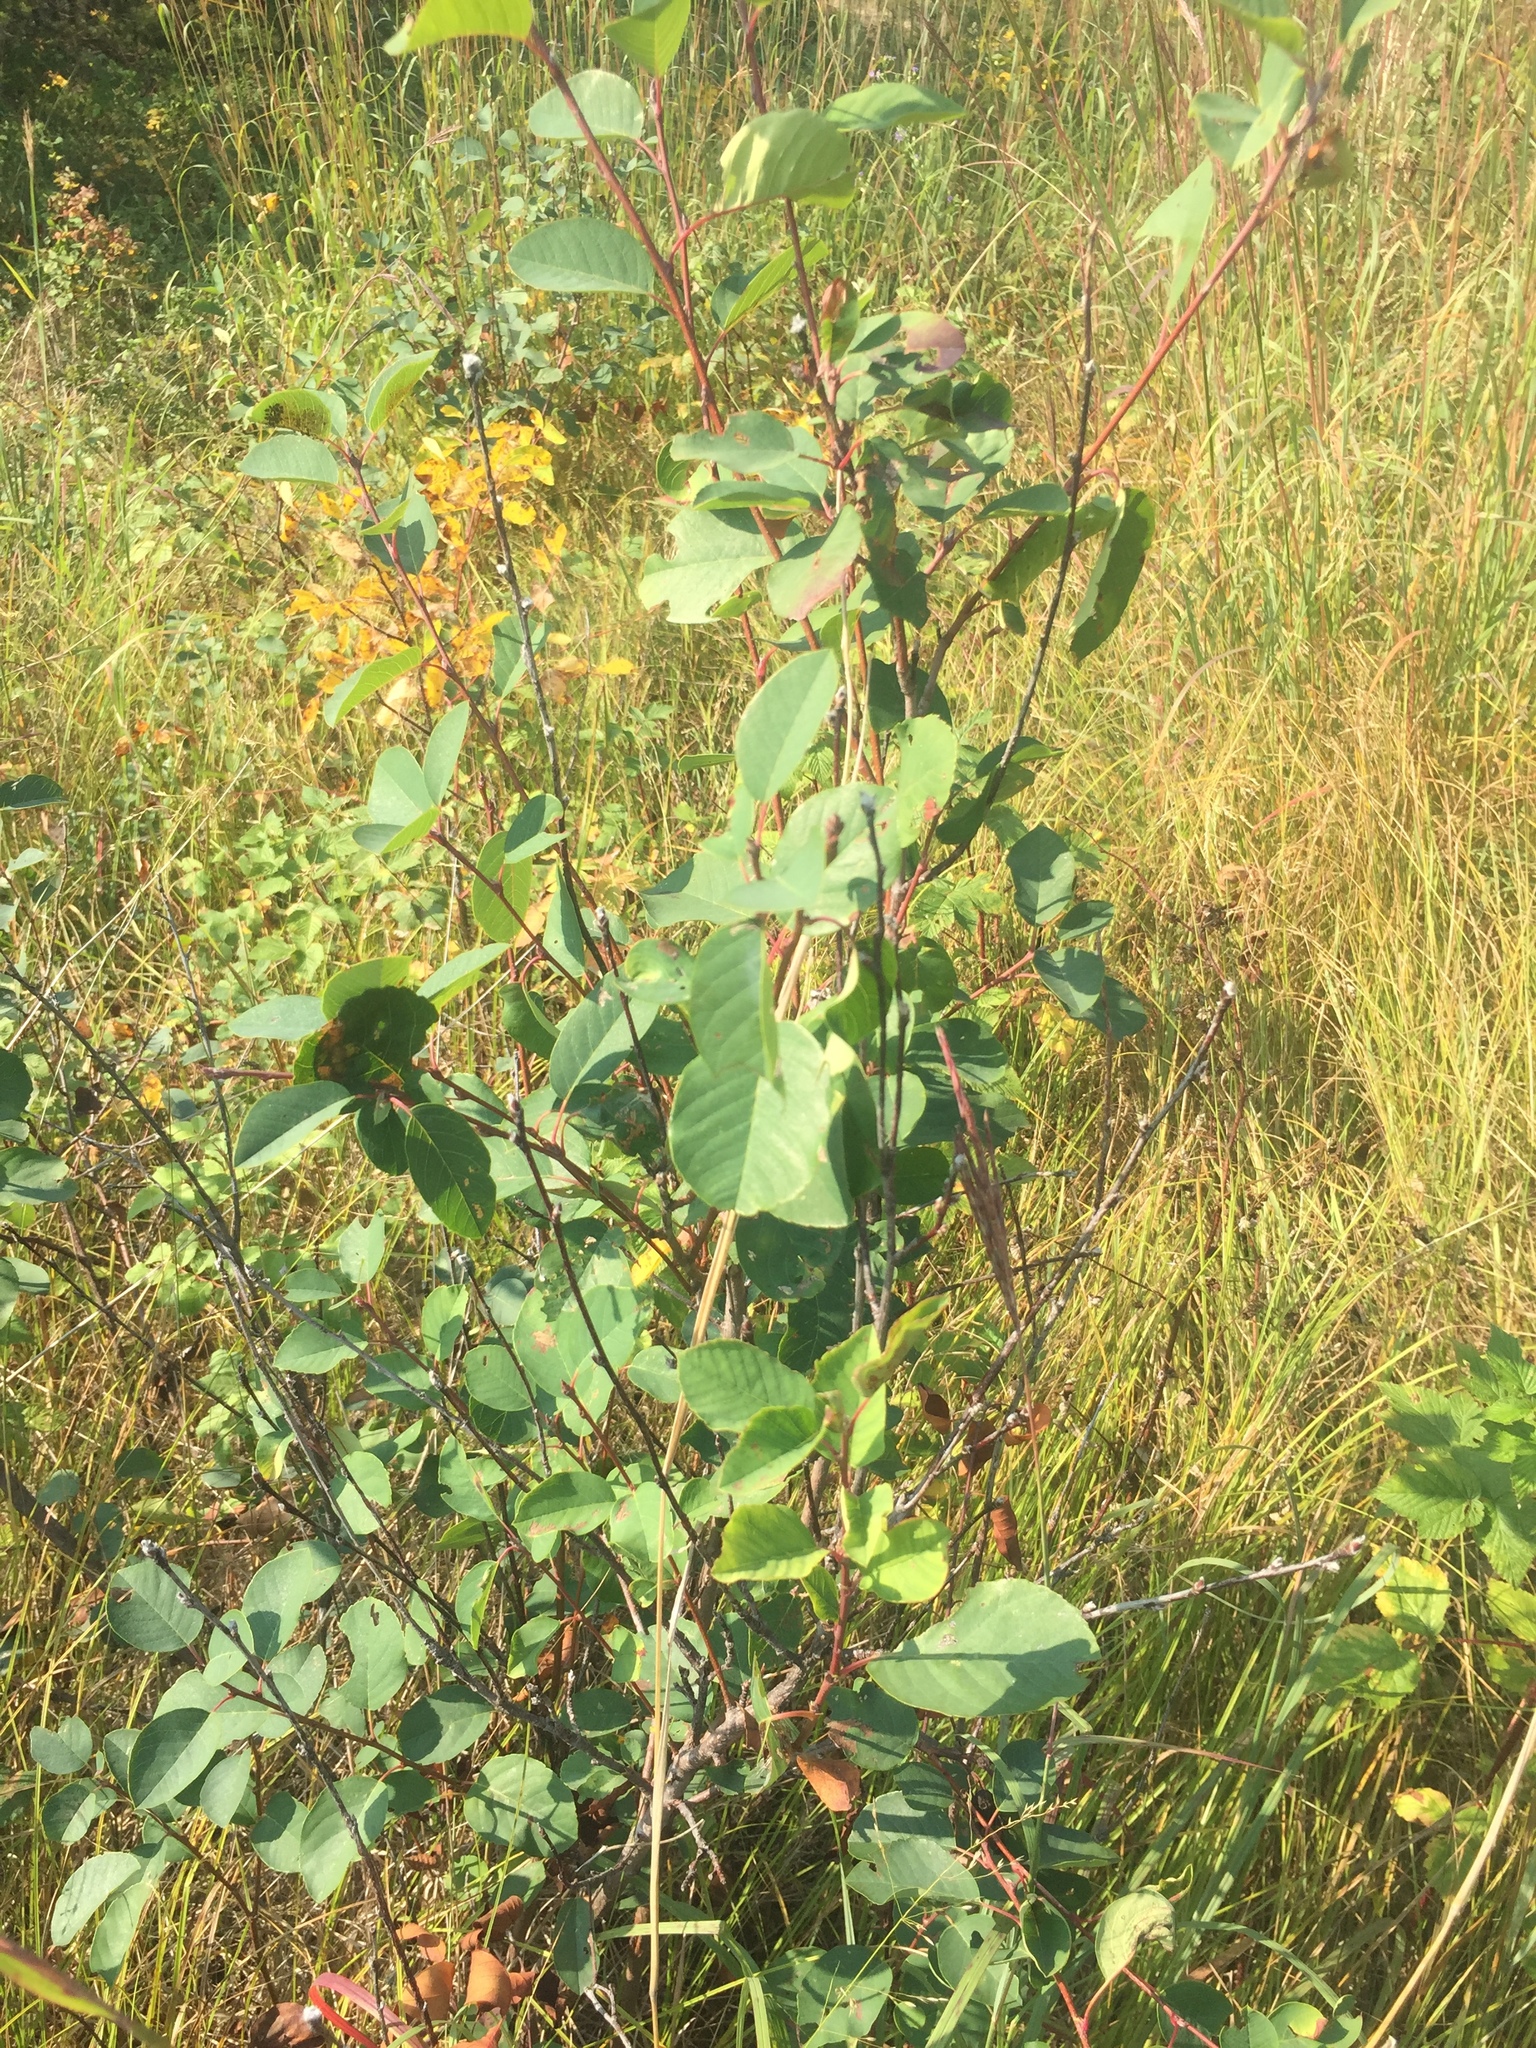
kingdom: Plantae
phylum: Tracheophyta
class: Magnoliopsida
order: Rosales
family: Rosaceae
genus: Amelanchier
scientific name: Amelanchier alnifolia
